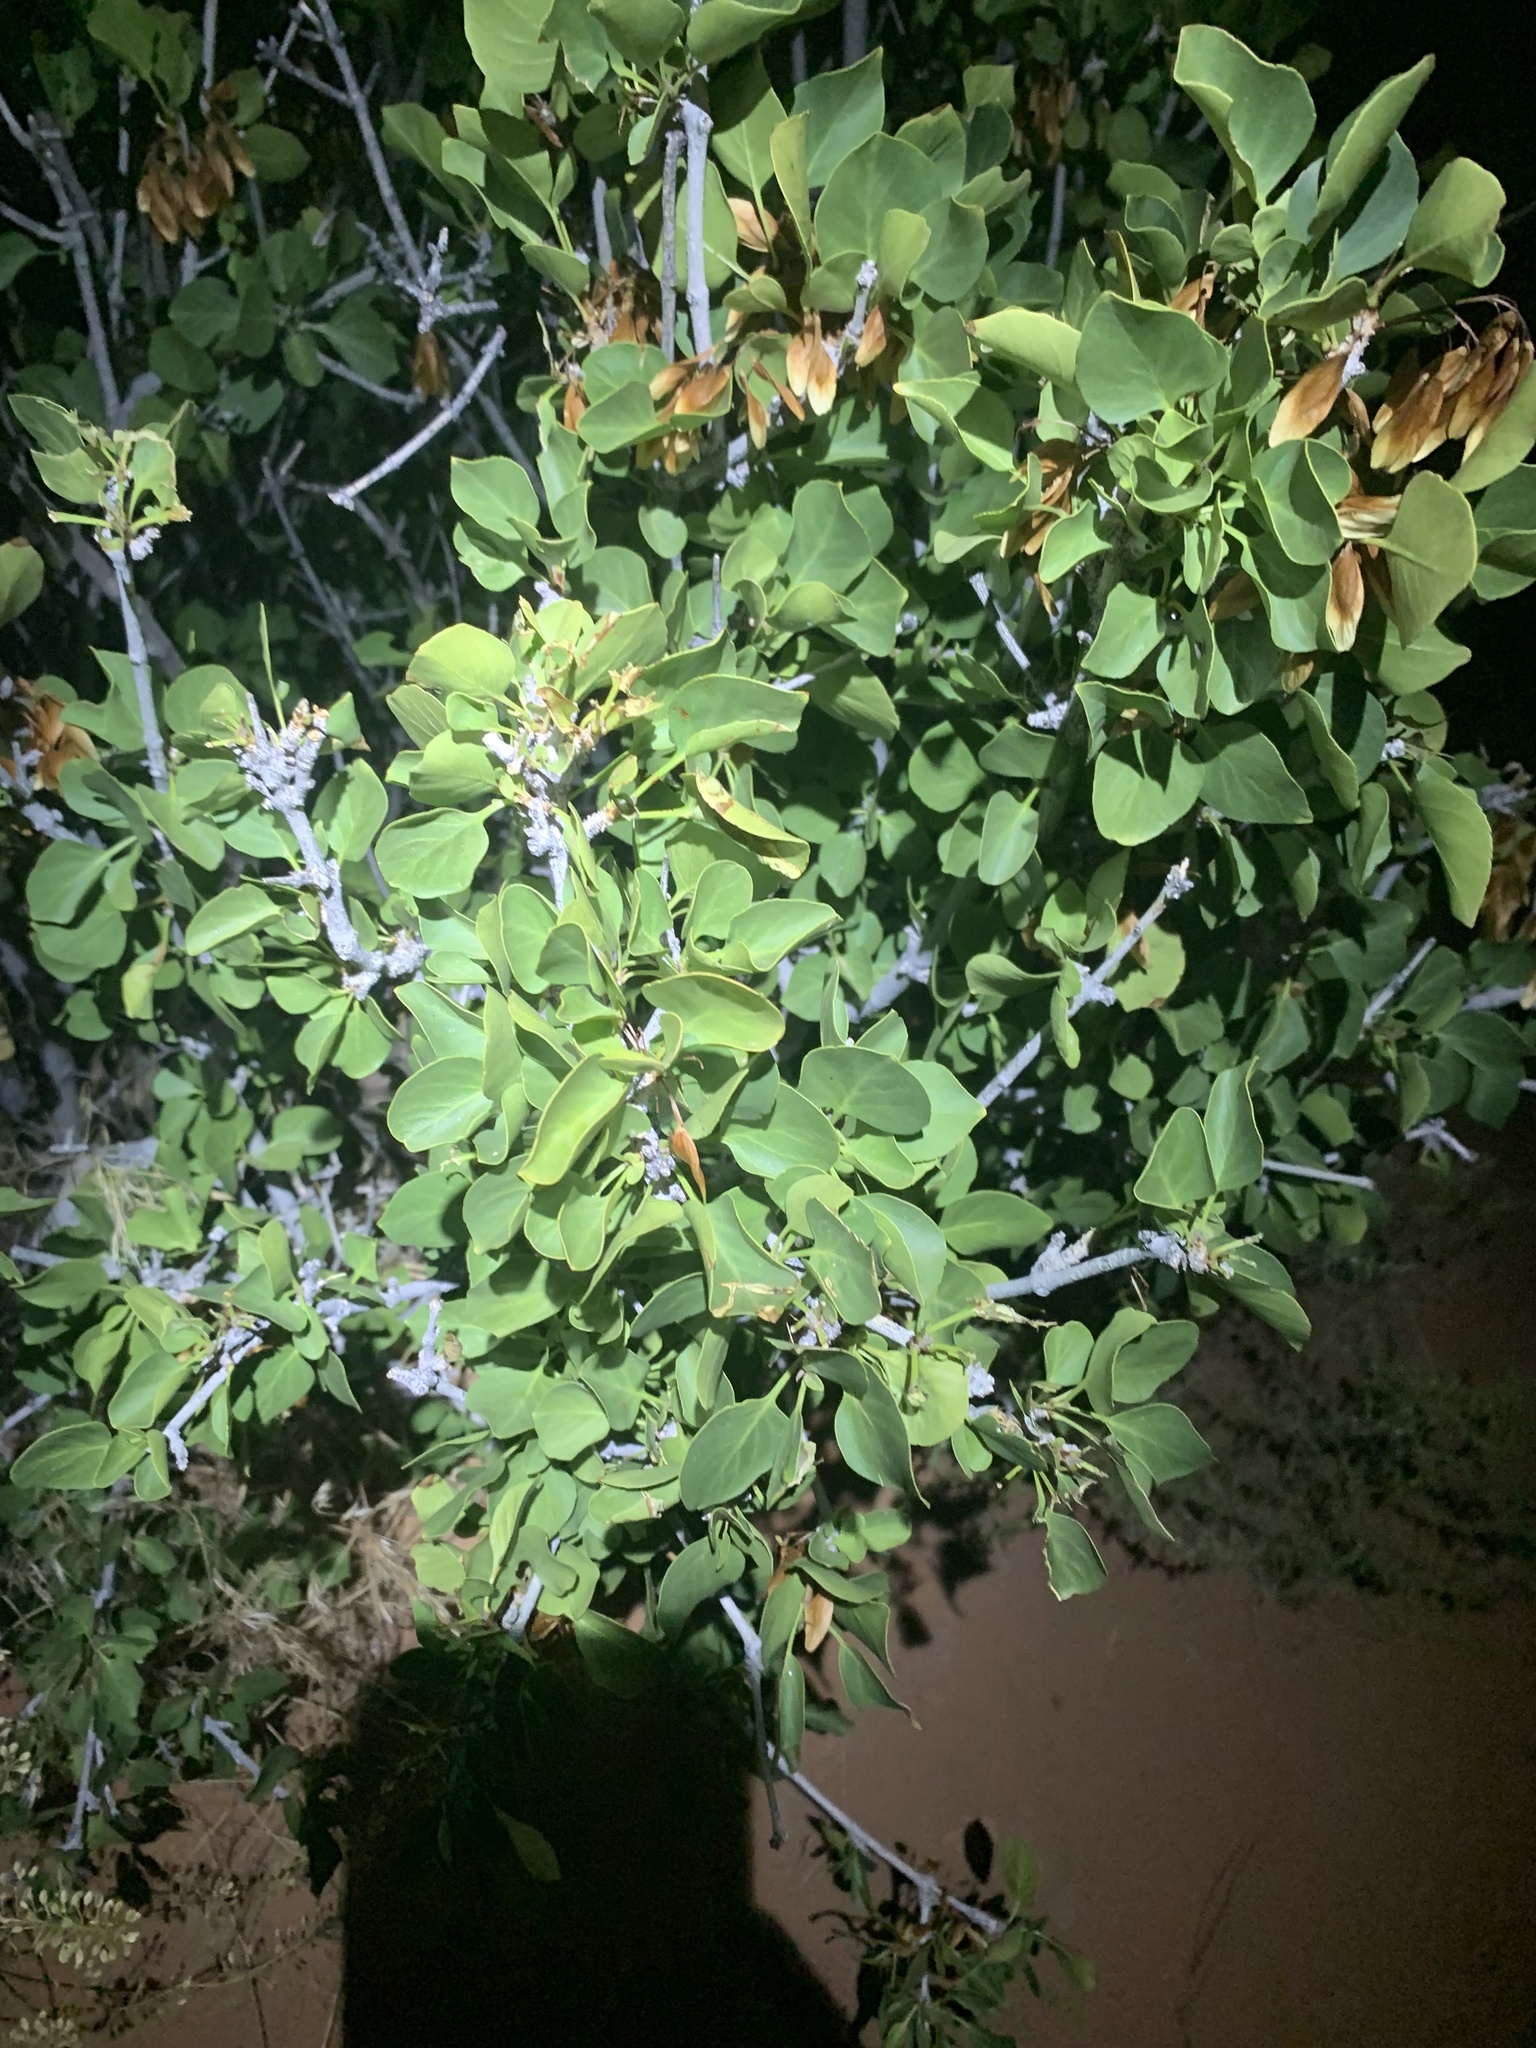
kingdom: Plantae
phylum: Tracheophyta
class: Magnoliopsida
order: Lamiales
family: Oleaceae
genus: Fraxinus
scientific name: Fraxinus anomala
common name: Utah ash
